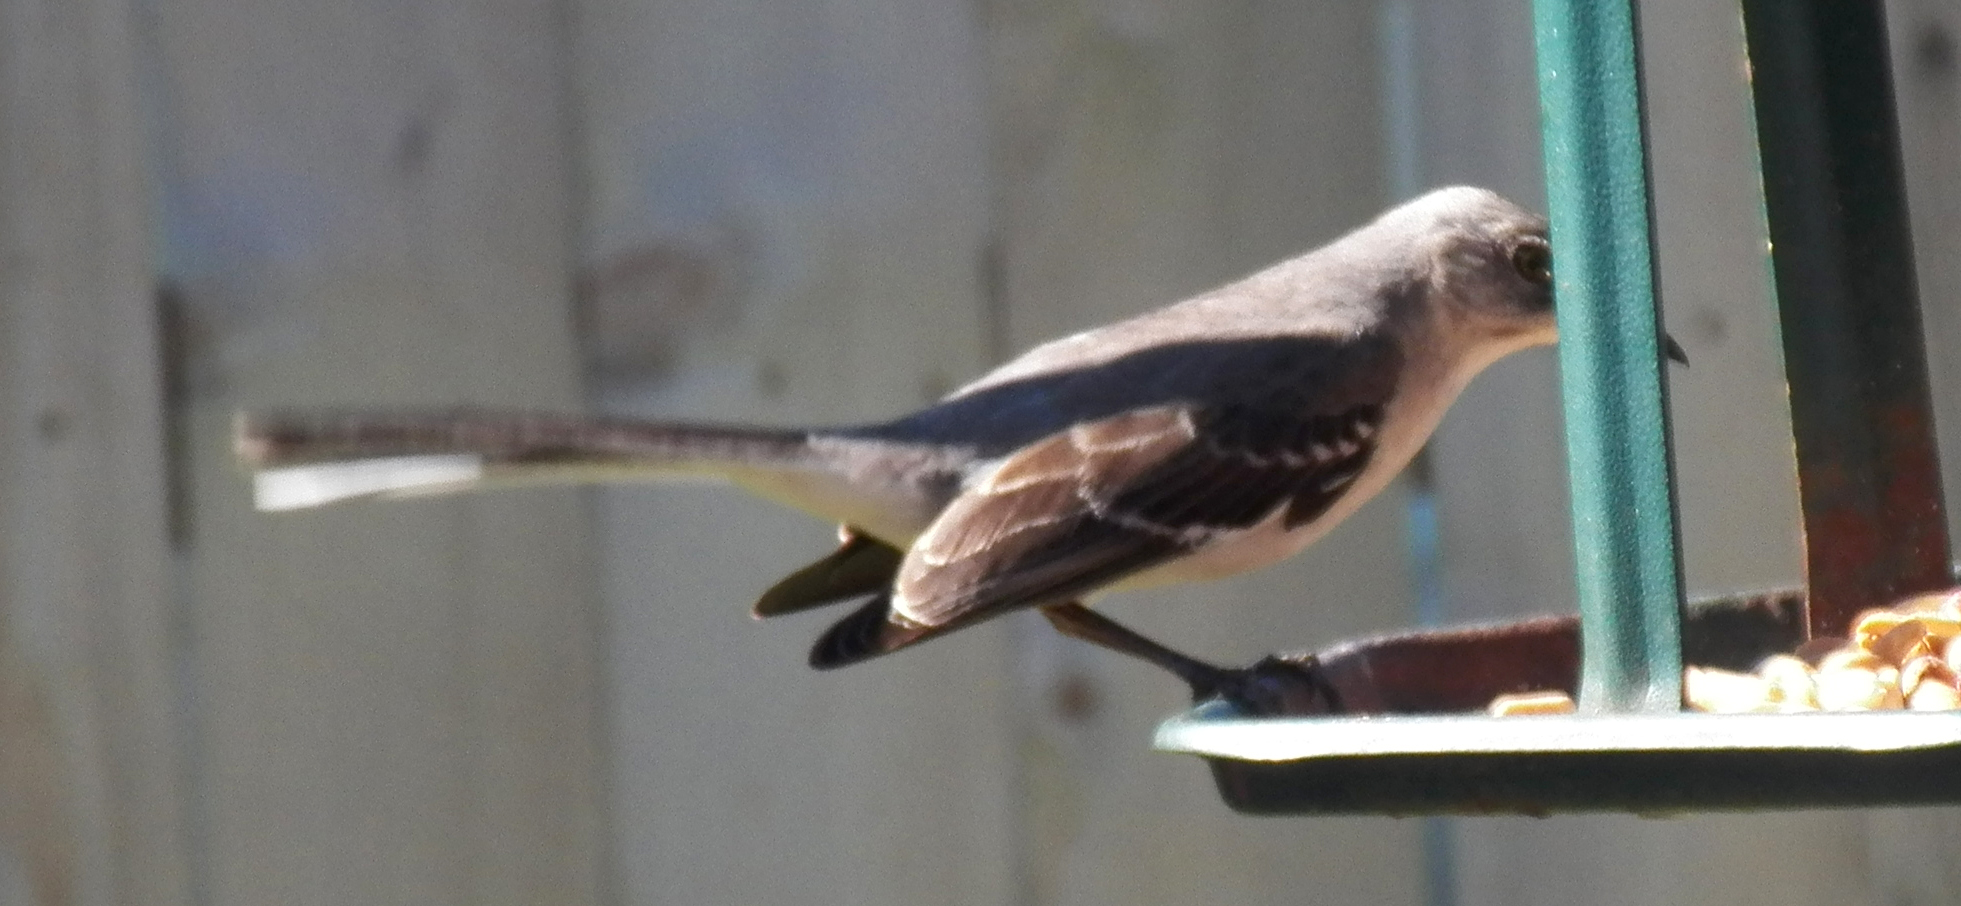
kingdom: Animalia
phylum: Chordata
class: Aves
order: Passeriformes
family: Mimidae
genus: Mimus
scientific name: Mimus polyglottos
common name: Northern mockingbird
